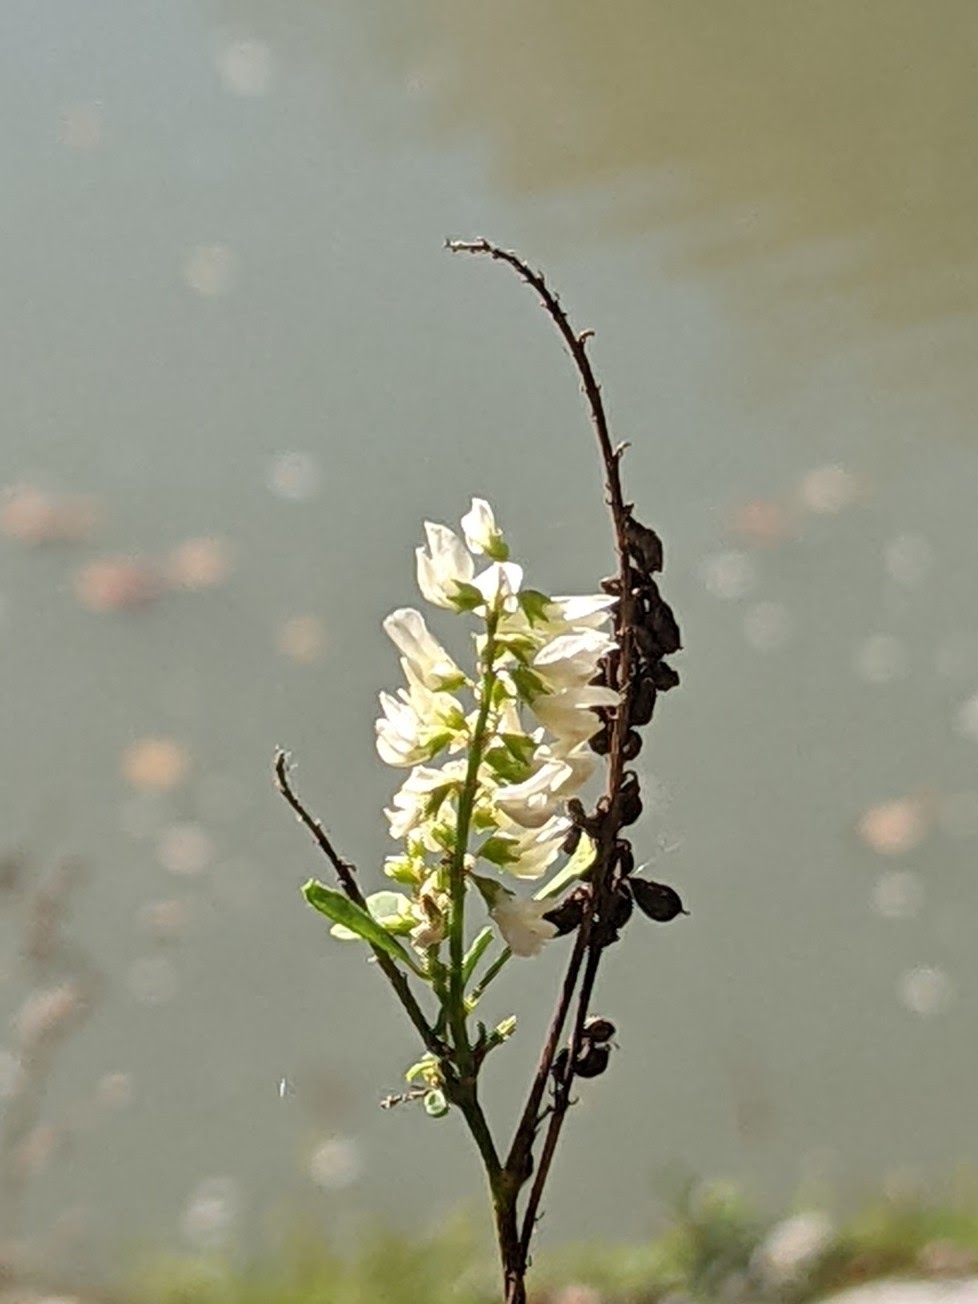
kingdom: Plantae
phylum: Tracheophyta
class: Magnoliopsida
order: Fabales
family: Fabaceae
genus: Melilotus
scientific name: Melilotus albus
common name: White melilot
